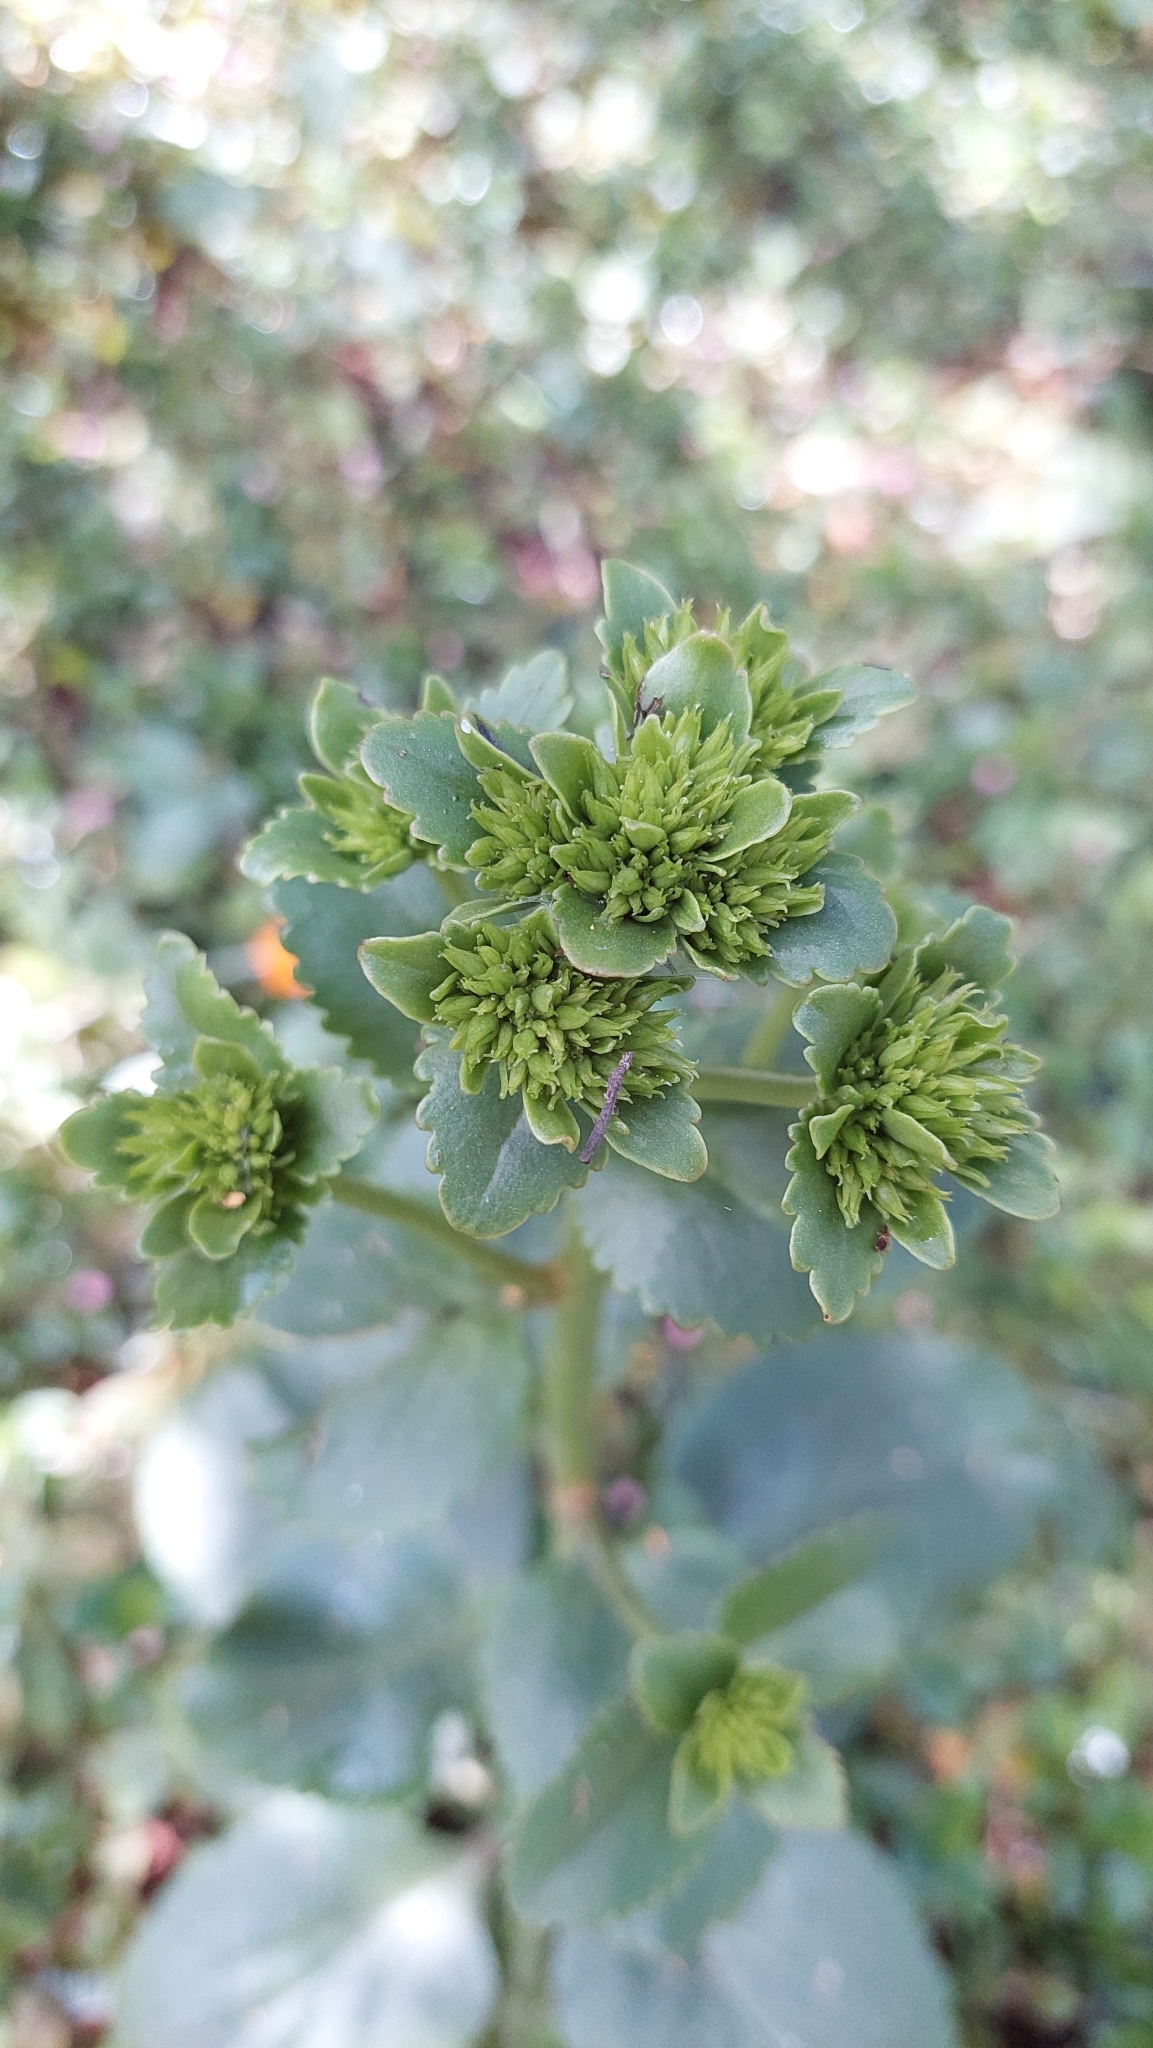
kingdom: Plantae
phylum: Tracheophyta
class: Magnoliopsida
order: Saxifragales
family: Crassulaceae
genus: Kalanchoe
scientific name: Kalanchoe densiflora
